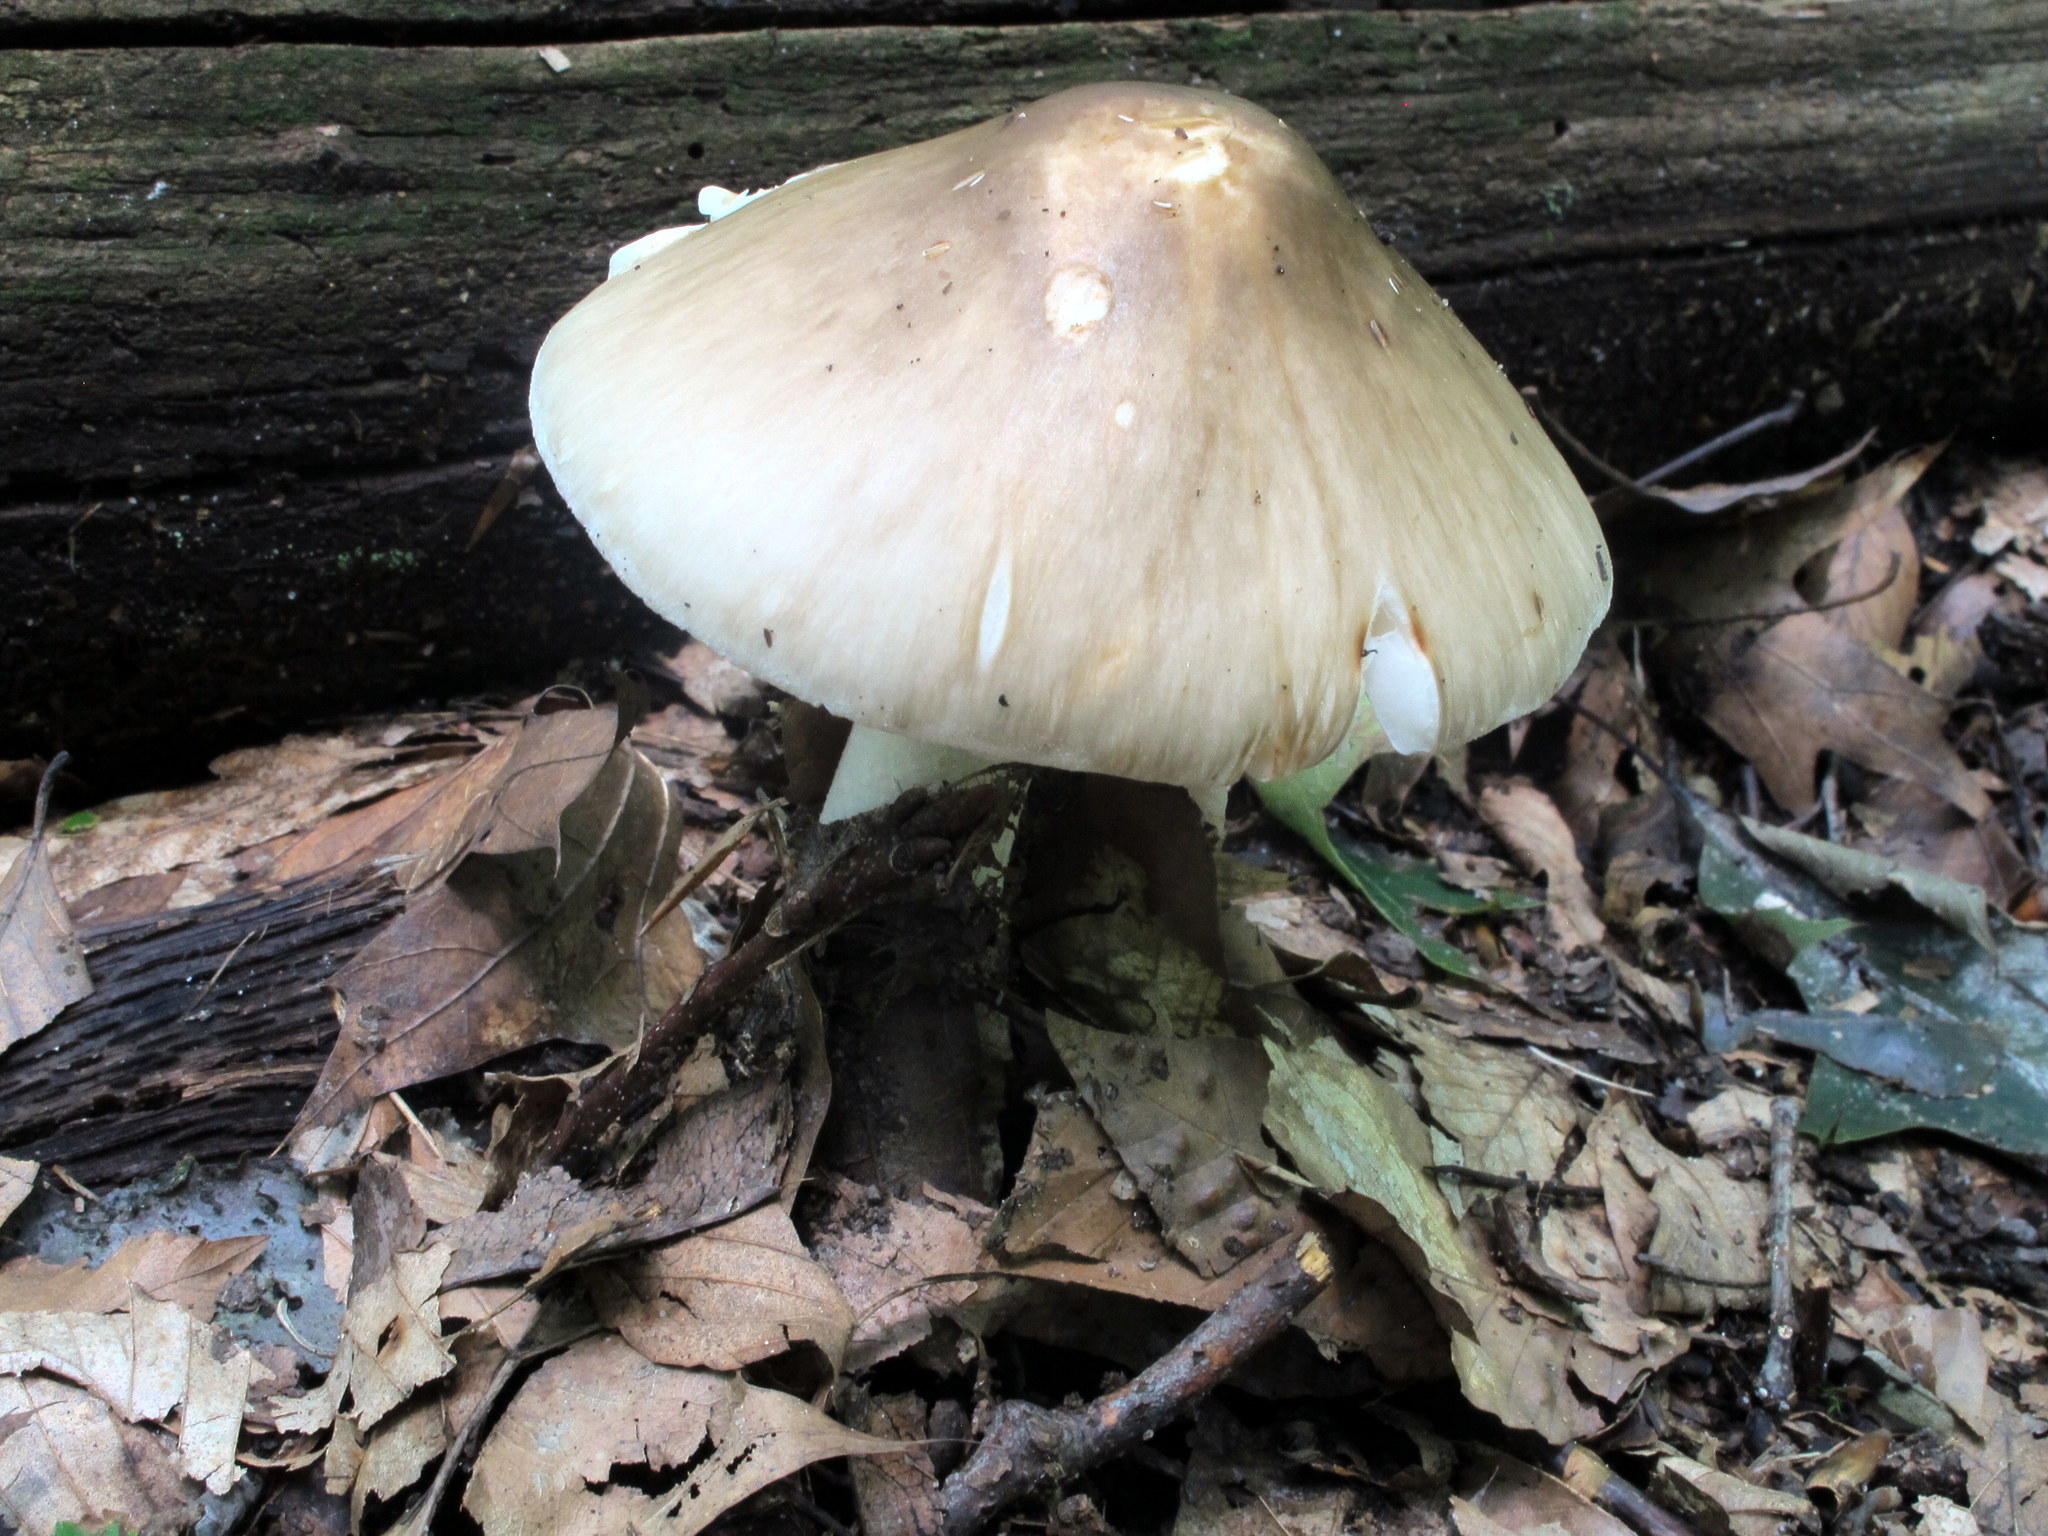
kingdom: Fungi
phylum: Basidiomycota
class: Agaricomycetes
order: Agaricales
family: Amanitaceae
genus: Amanita
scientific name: Amanita brunnescens
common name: Brown american star-footed amanita
